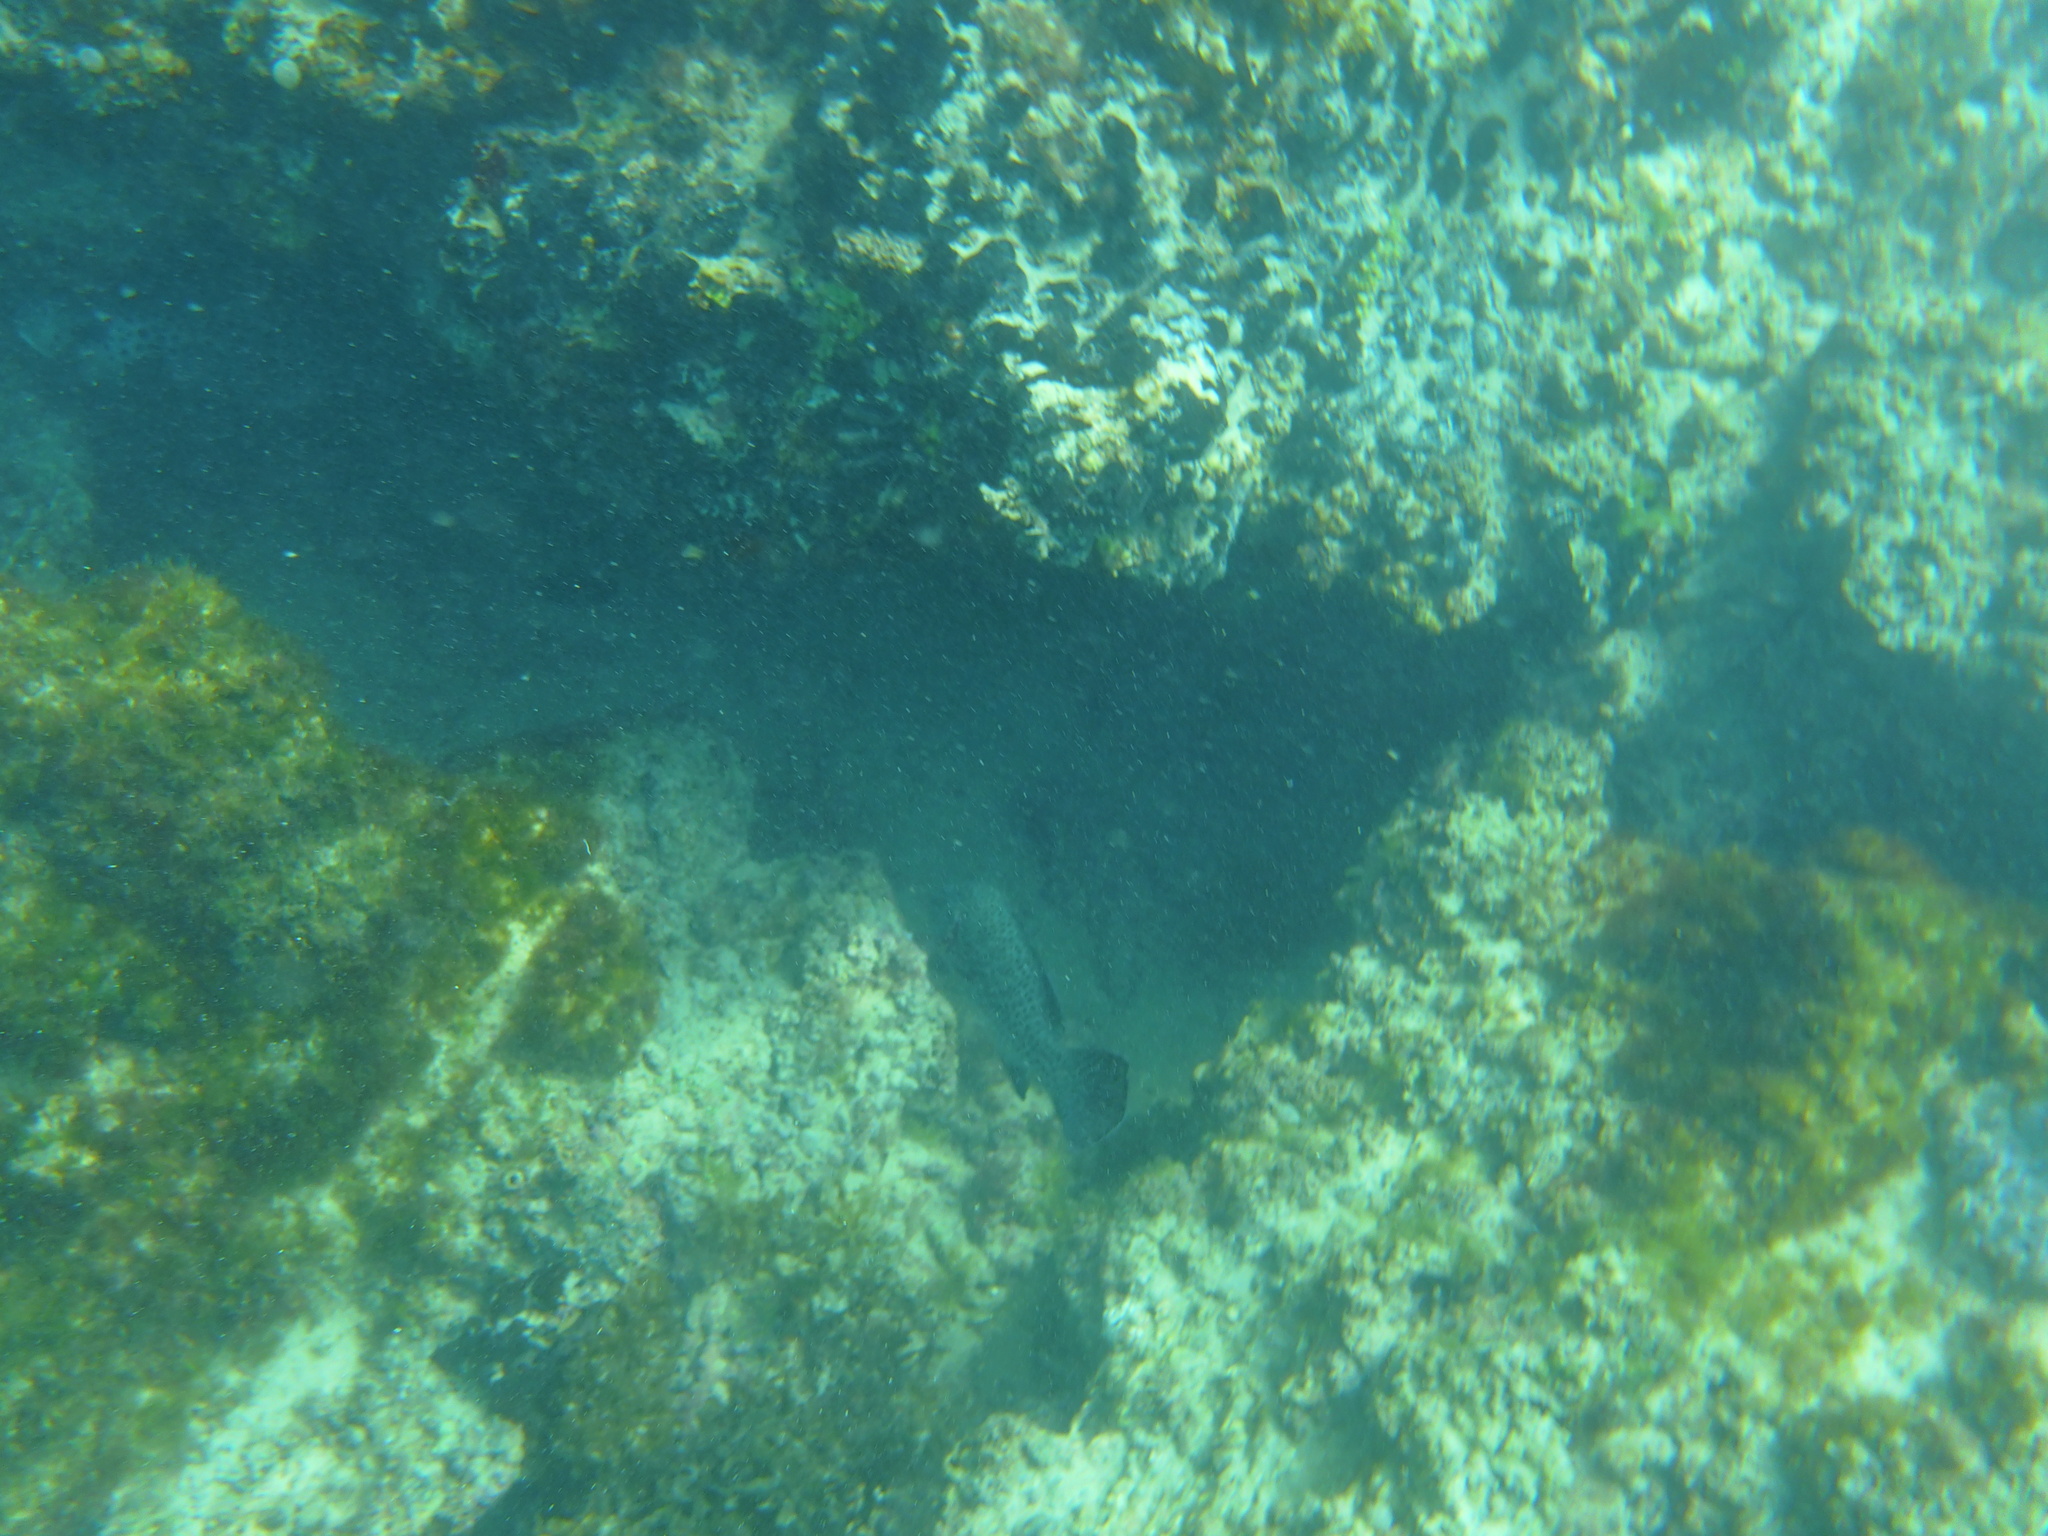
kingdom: Animalia
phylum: Chordata
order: Perciformes
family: Serranidae
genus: Dermatolepis
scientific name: Dermatolepis dermatolepis
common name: Leather bass
